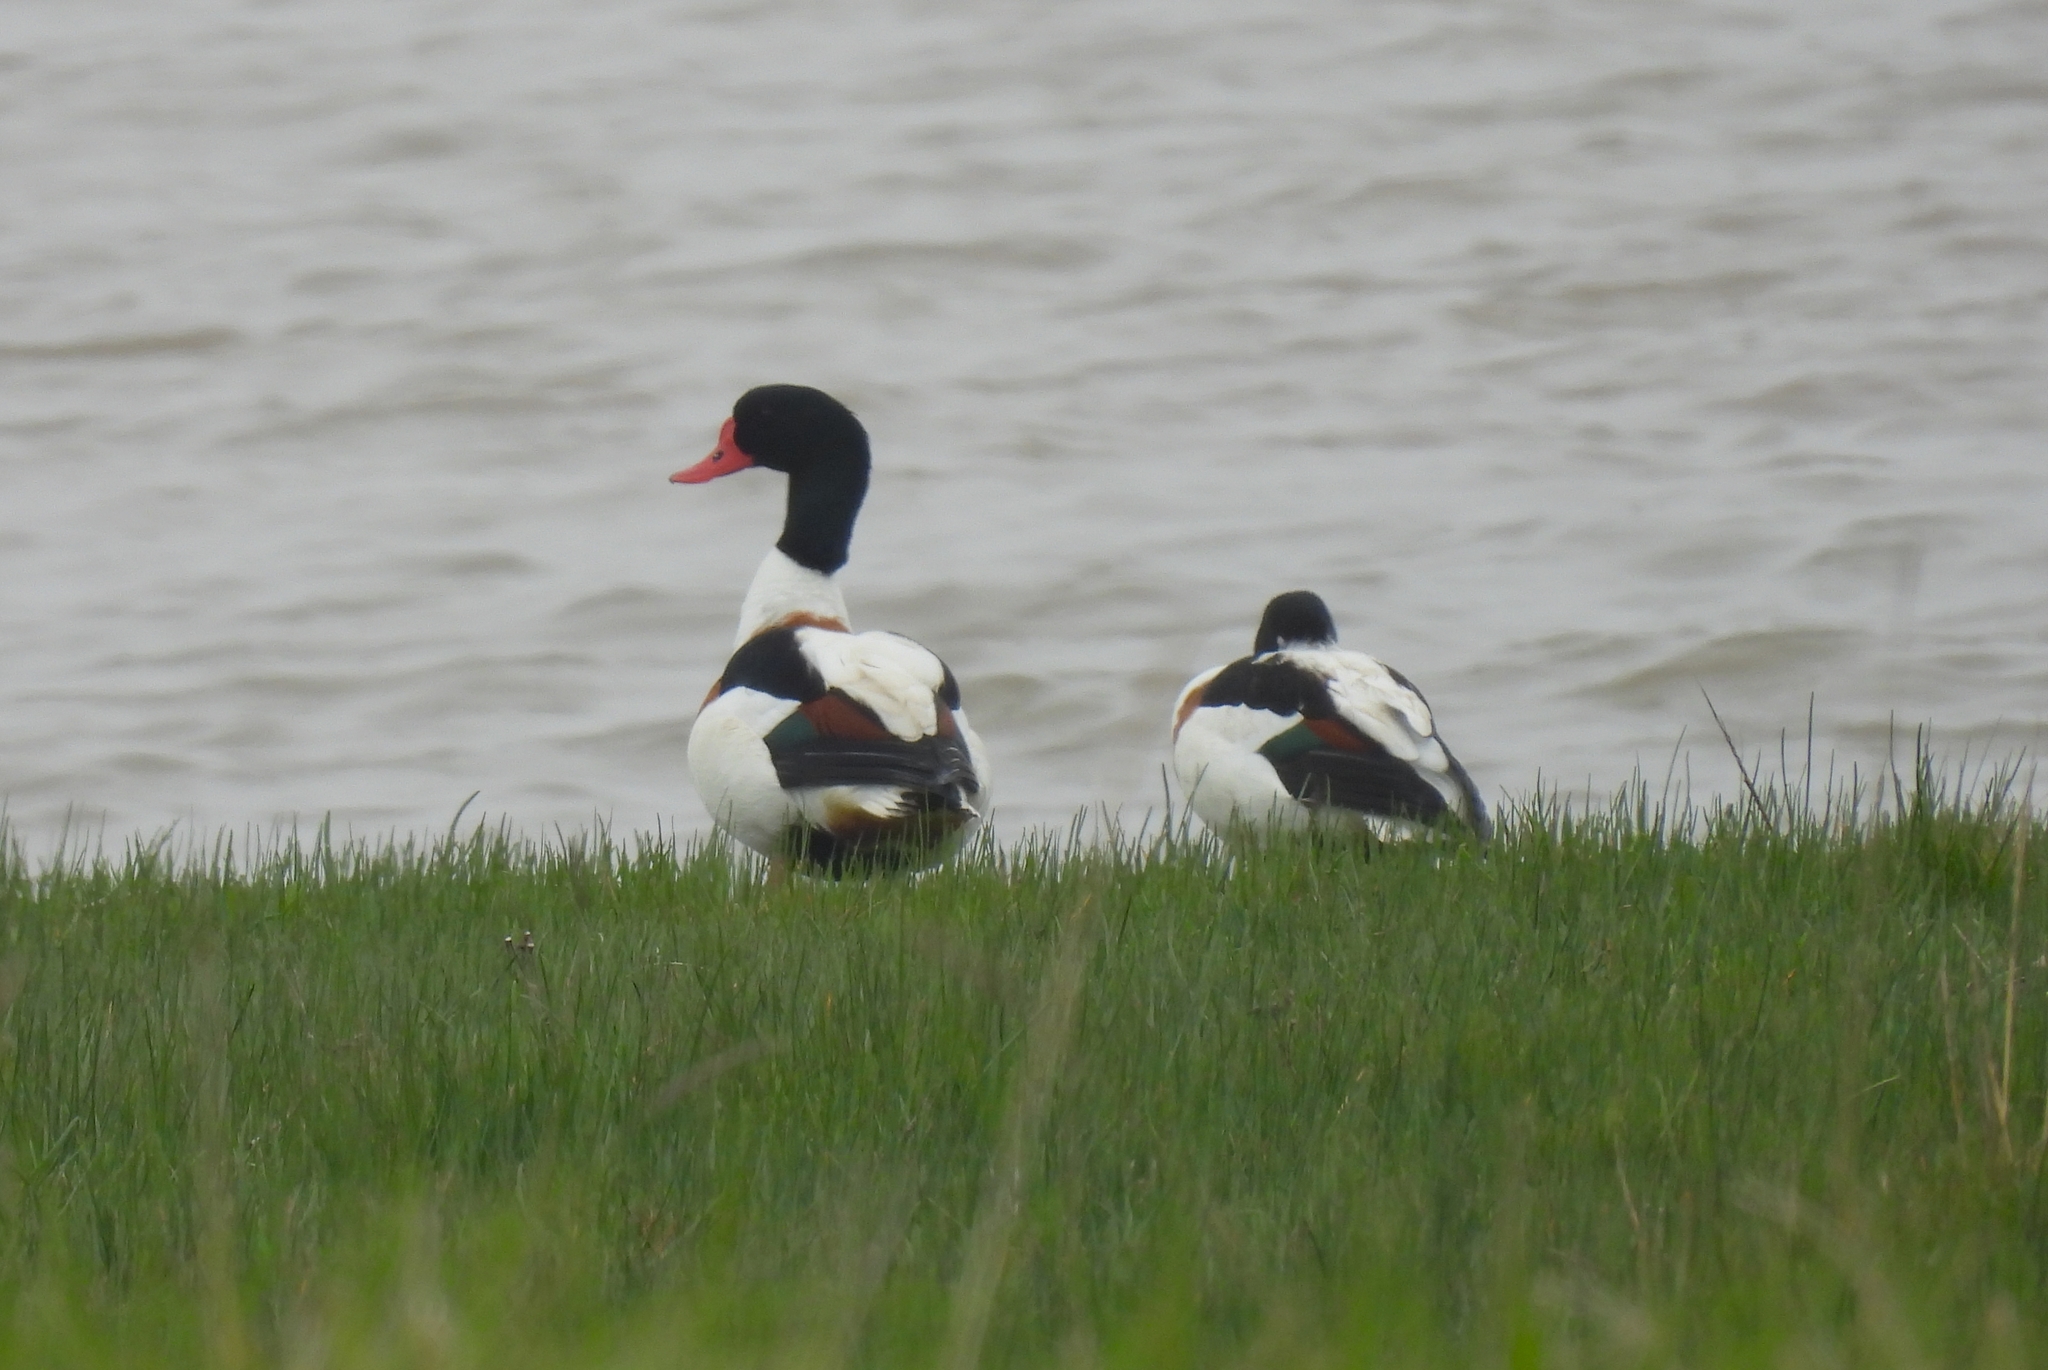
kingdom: Animalia
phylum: Chordata
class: Aves
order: Anseriformes
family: Anatidae
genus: Tadorna
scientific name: Tadorna tadorna
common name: Common shelduck
